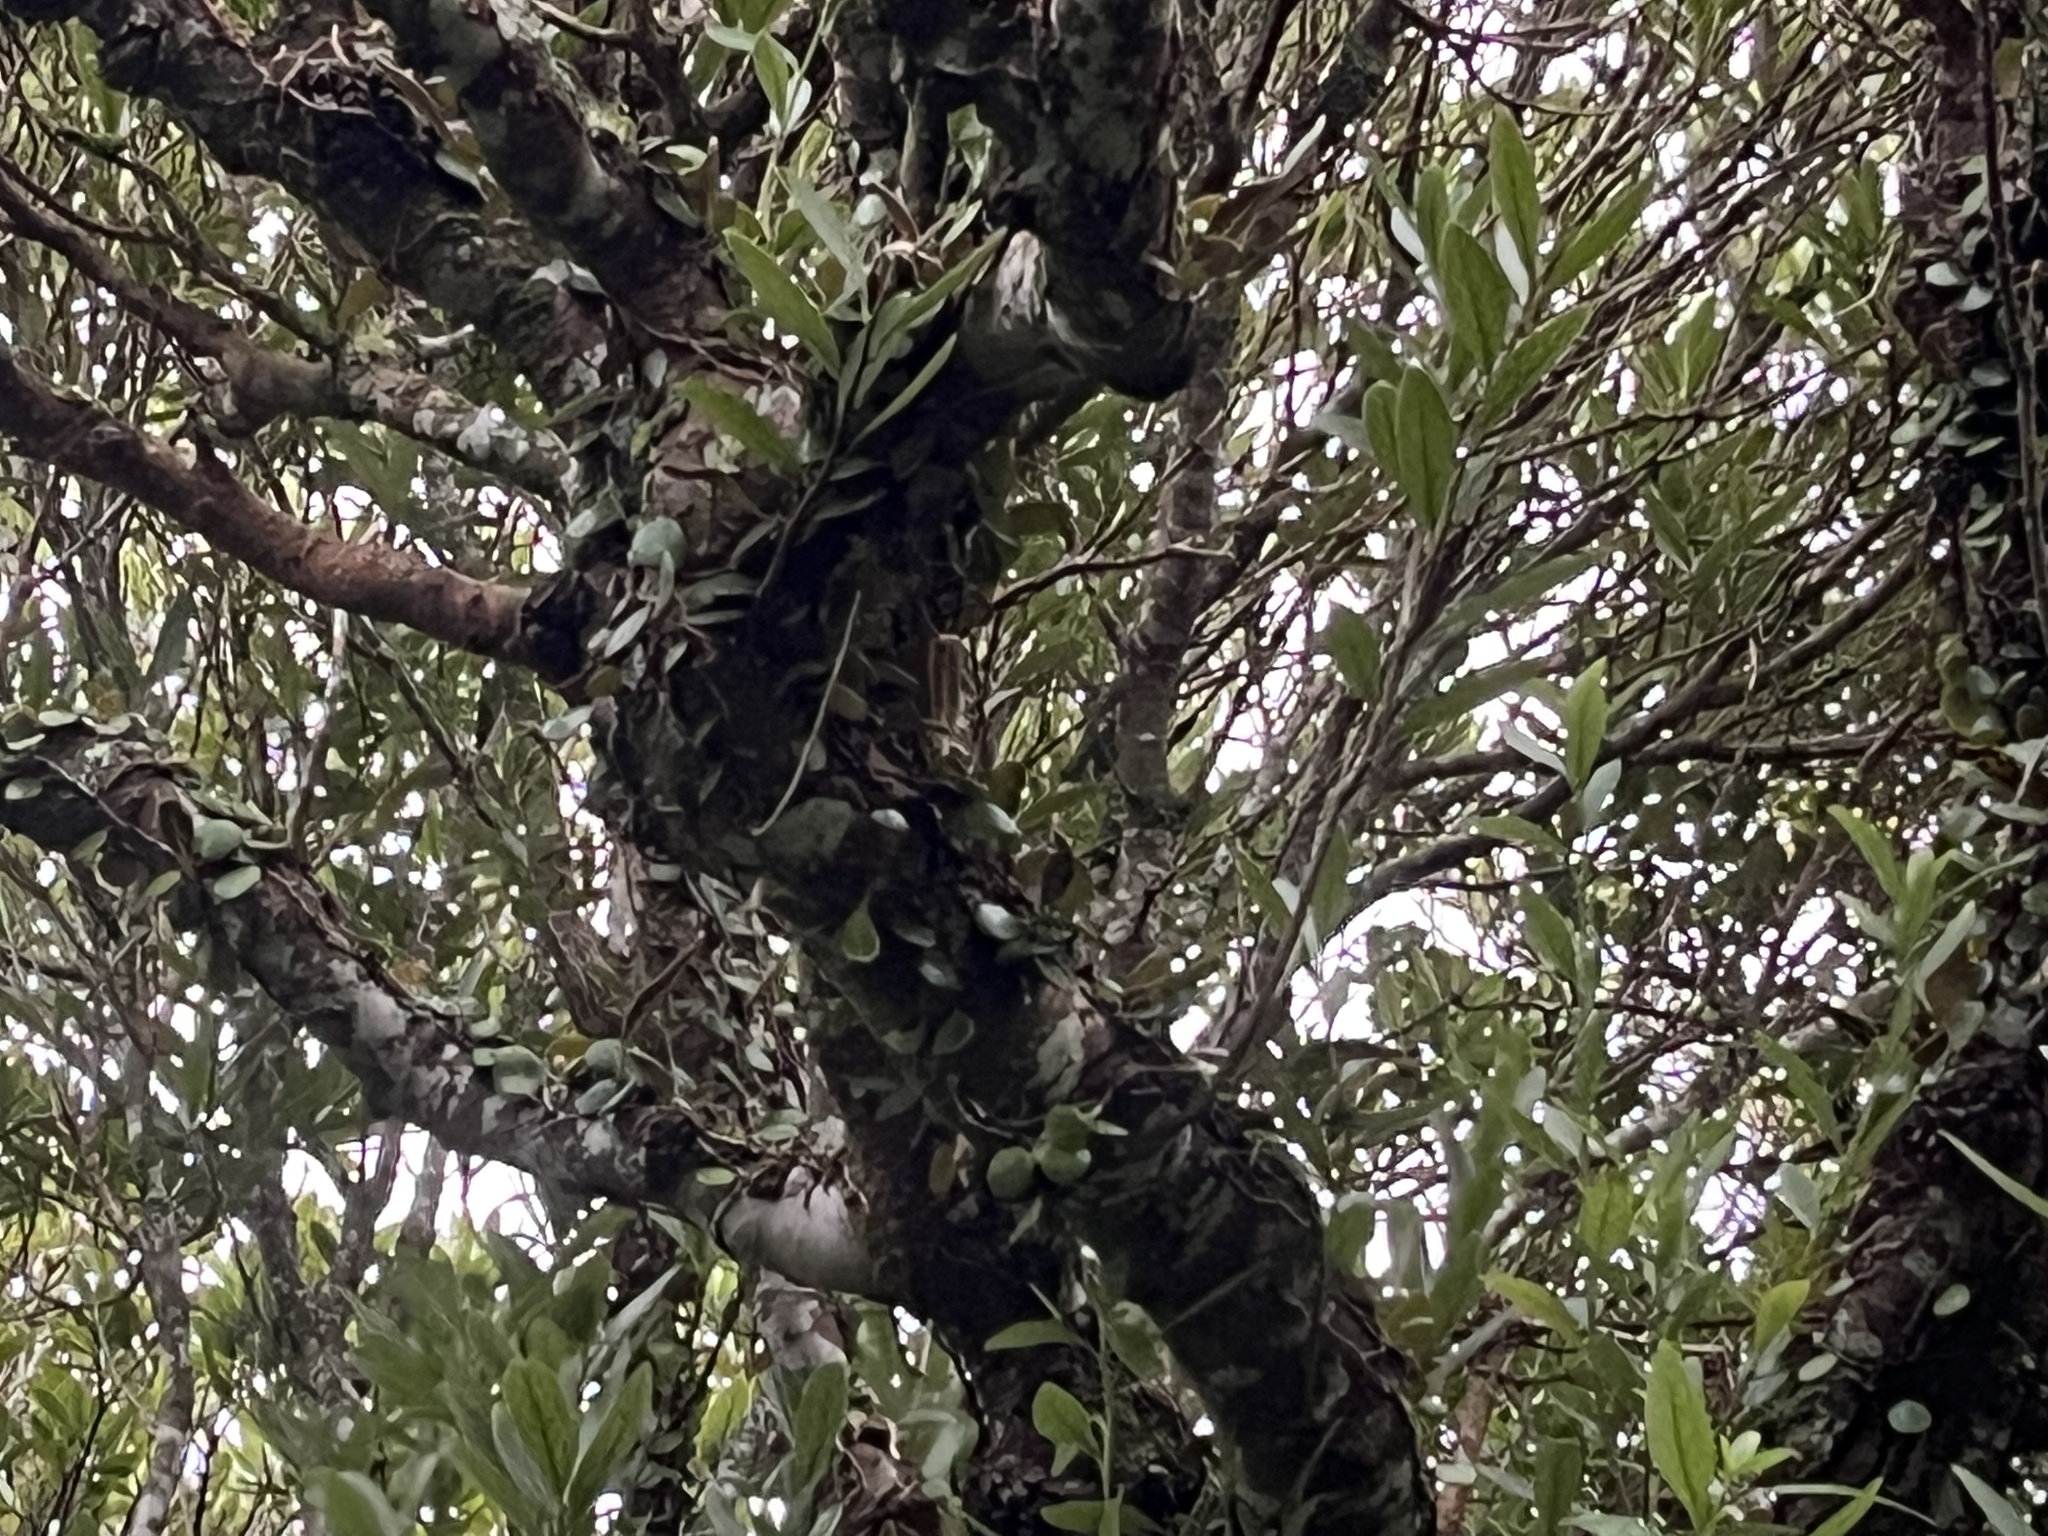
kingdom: Plantae
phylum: Tracheophyta
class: Polypodiopsida
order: Polypodiales
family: Polypodiaceae
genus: Pyrrosia
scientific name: Pyrrosia eleagnifolia
